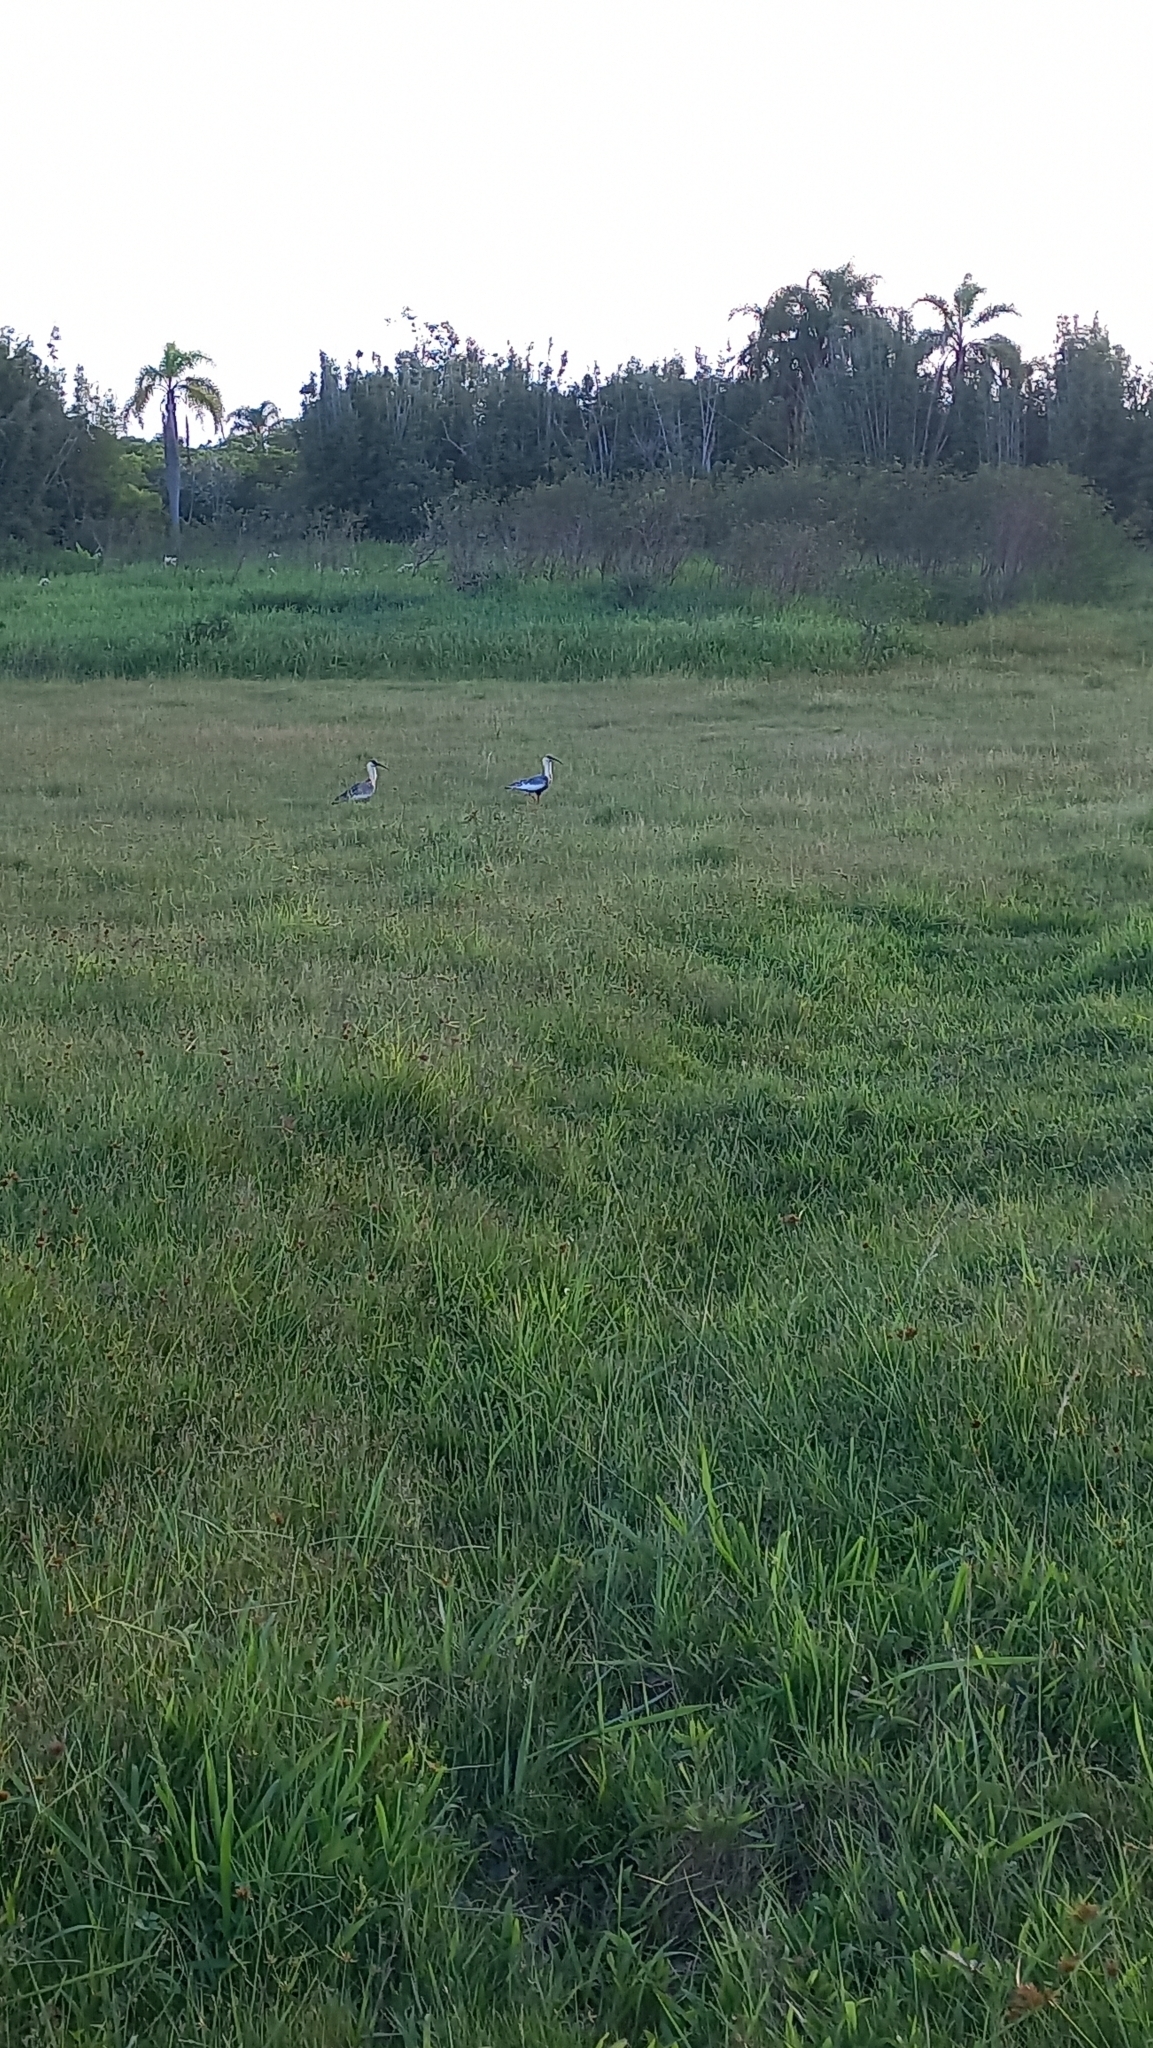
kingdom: Animalia
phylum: Chordata
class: Aves
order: Pelecaniformes
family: Threskiornithidae
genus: Theristicus
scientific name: Theristicus caudatus
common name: Buff-necked ibis
